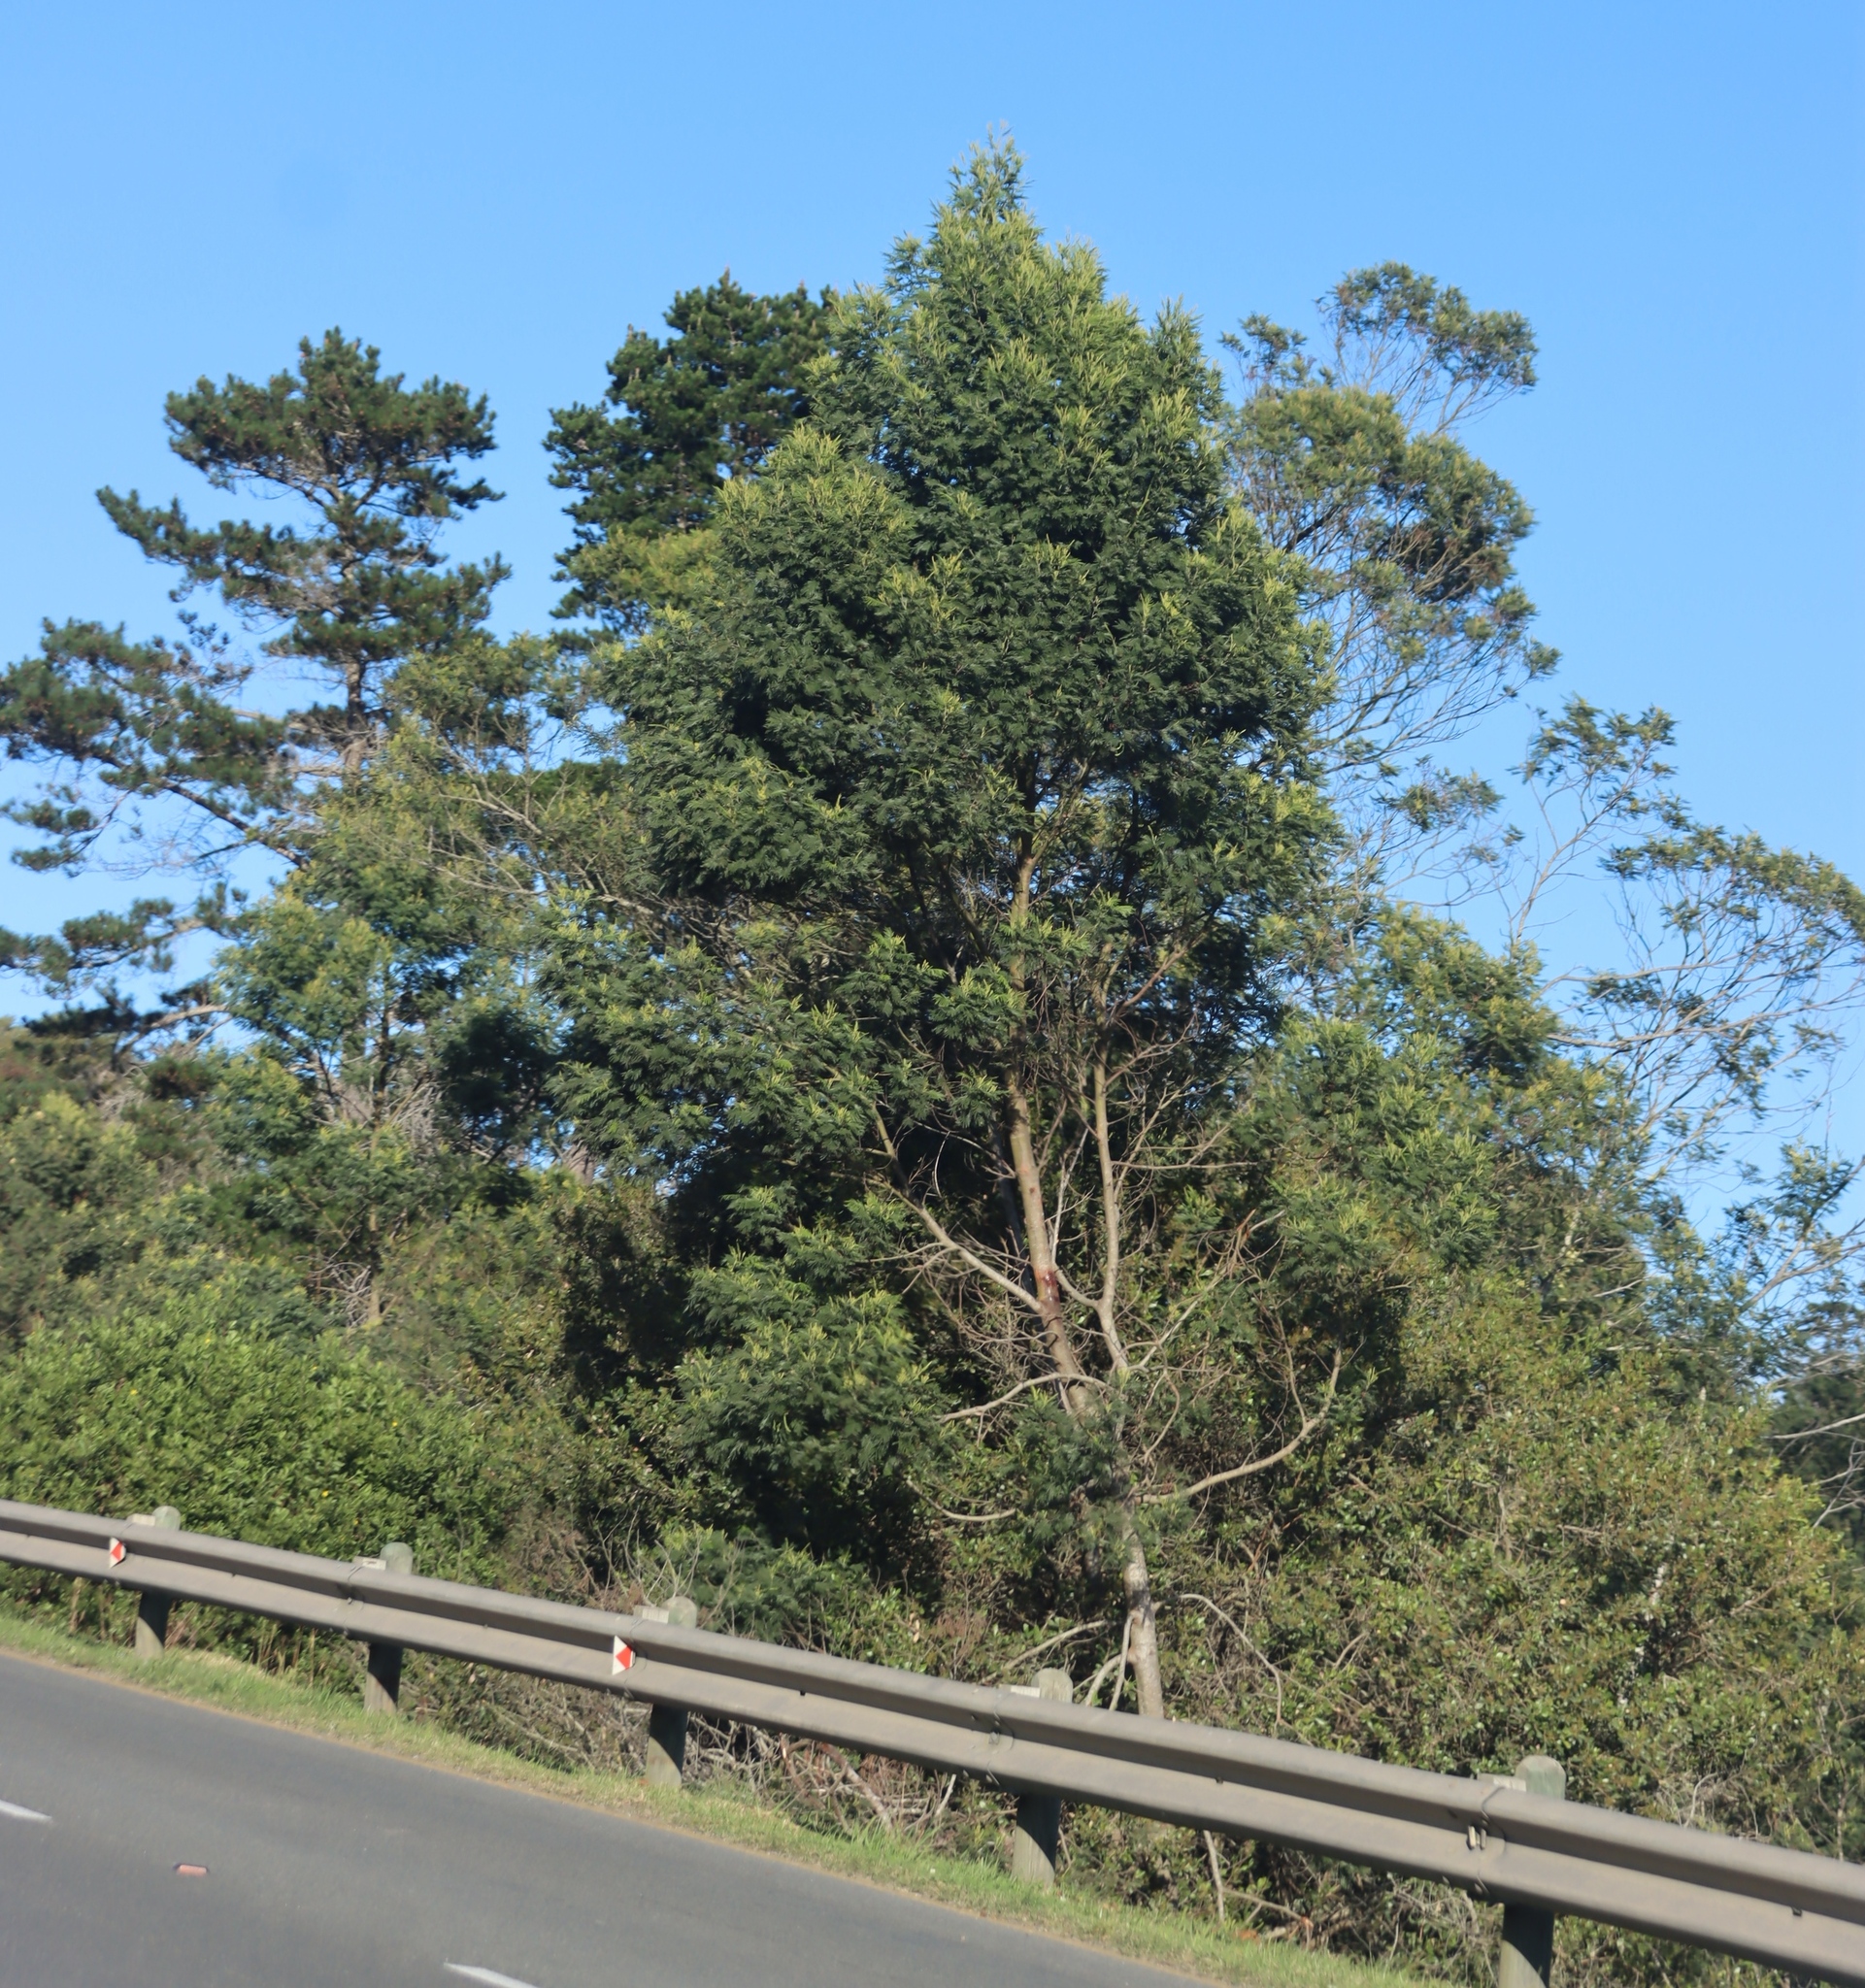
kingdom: Plantae
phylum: Tracheophyta
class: Magnoliopsida
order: Fabales
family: Fabaceae
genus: Acacia
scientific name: Acacia mearnsii
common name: Black wattle
